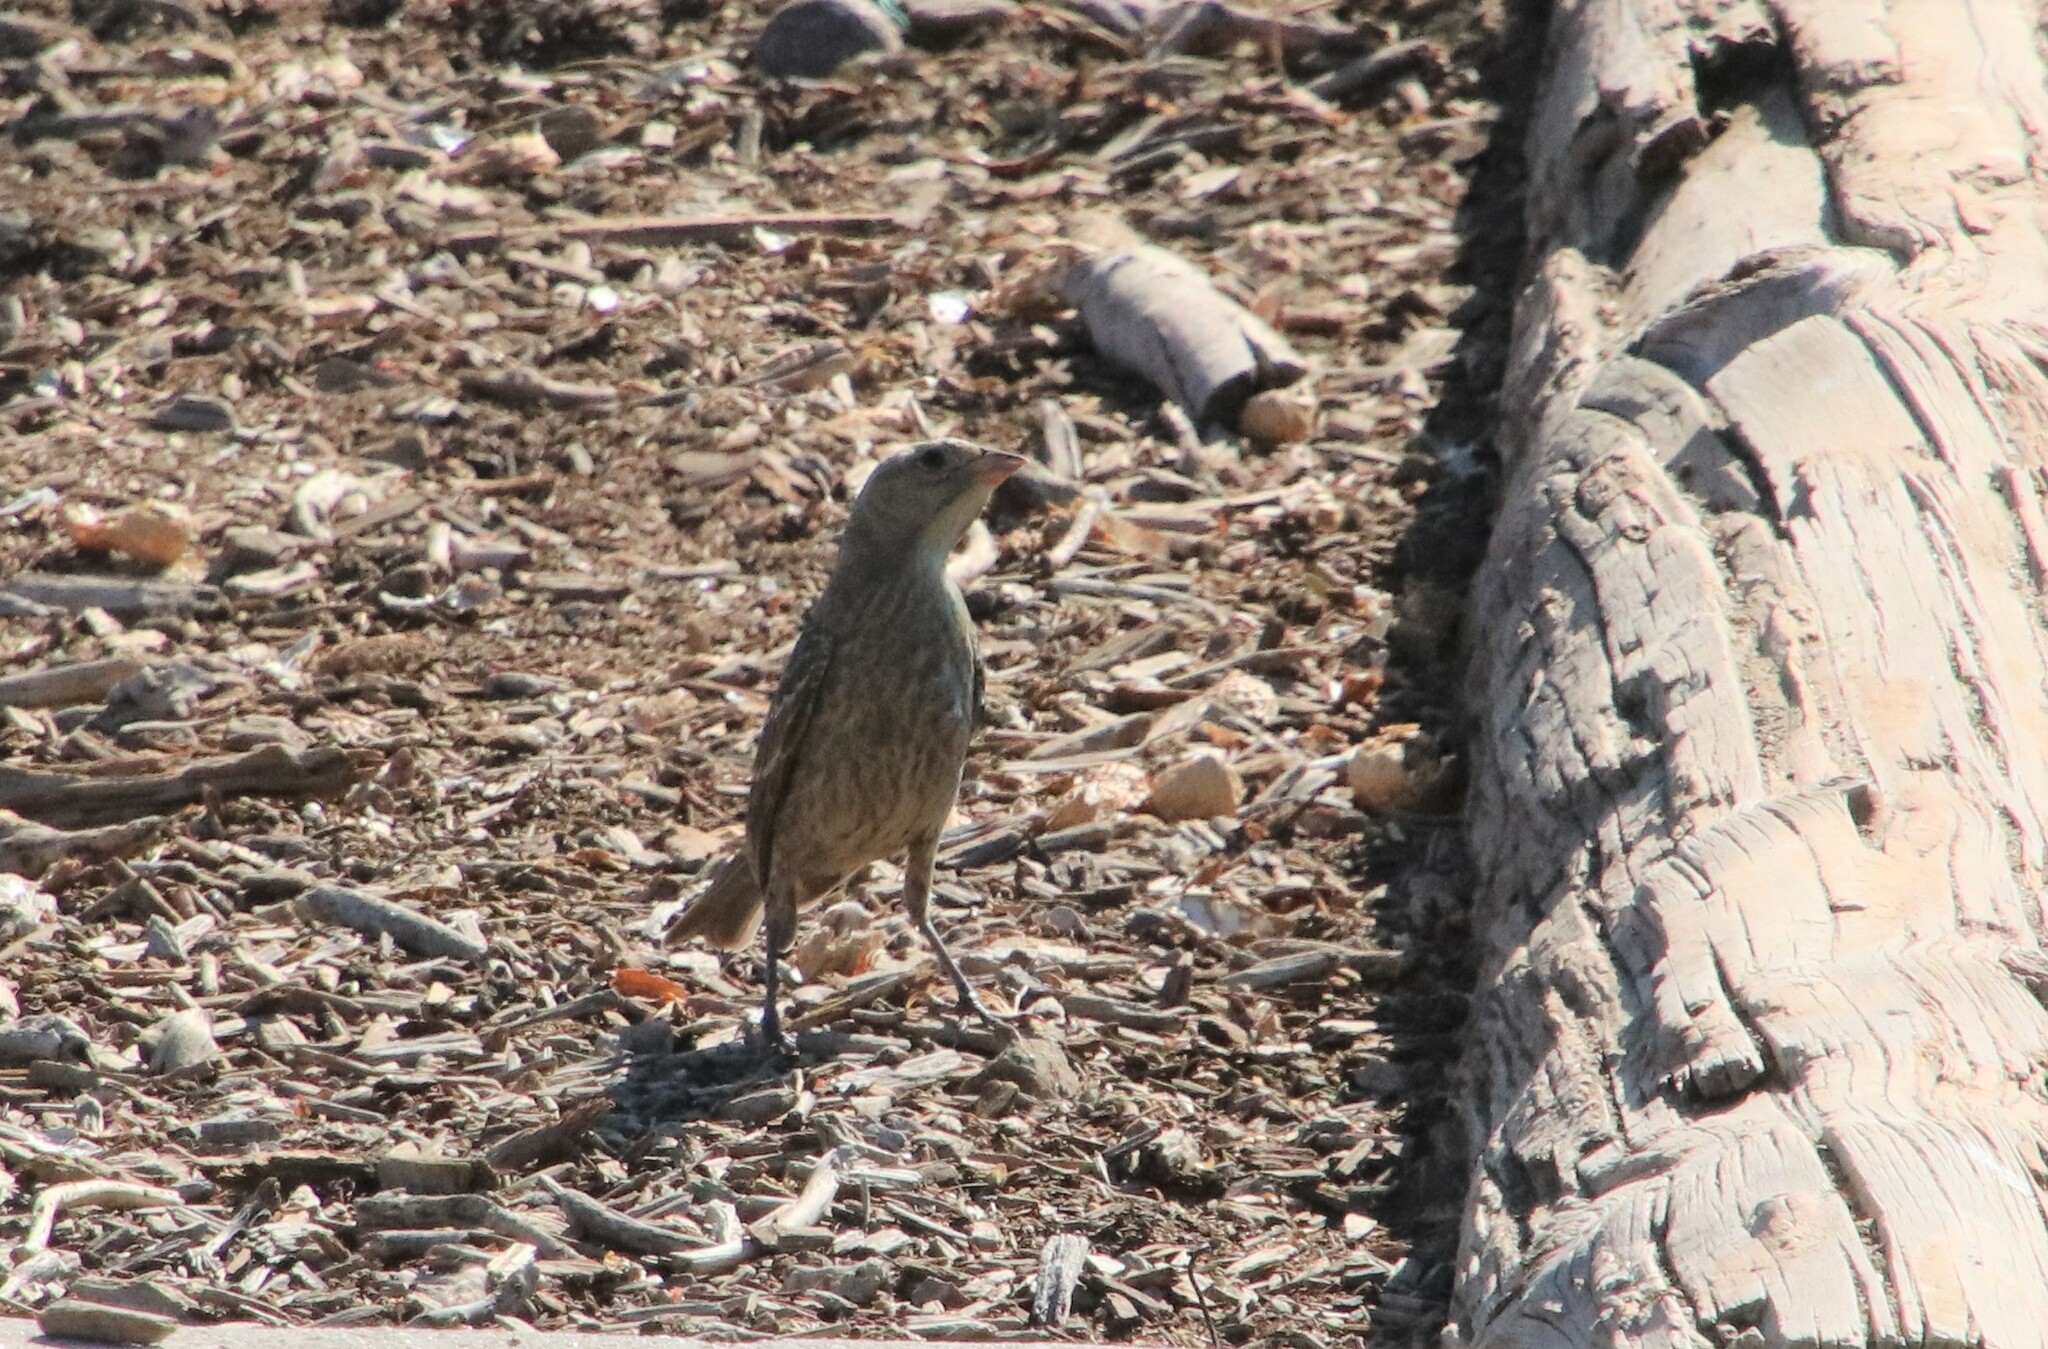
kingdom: Animalia
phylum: Chordata
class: Aves
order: Passeriformes
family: Icteridae
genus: Molothrus
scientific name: Molothrus ater
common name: Brown-headed cowbird
